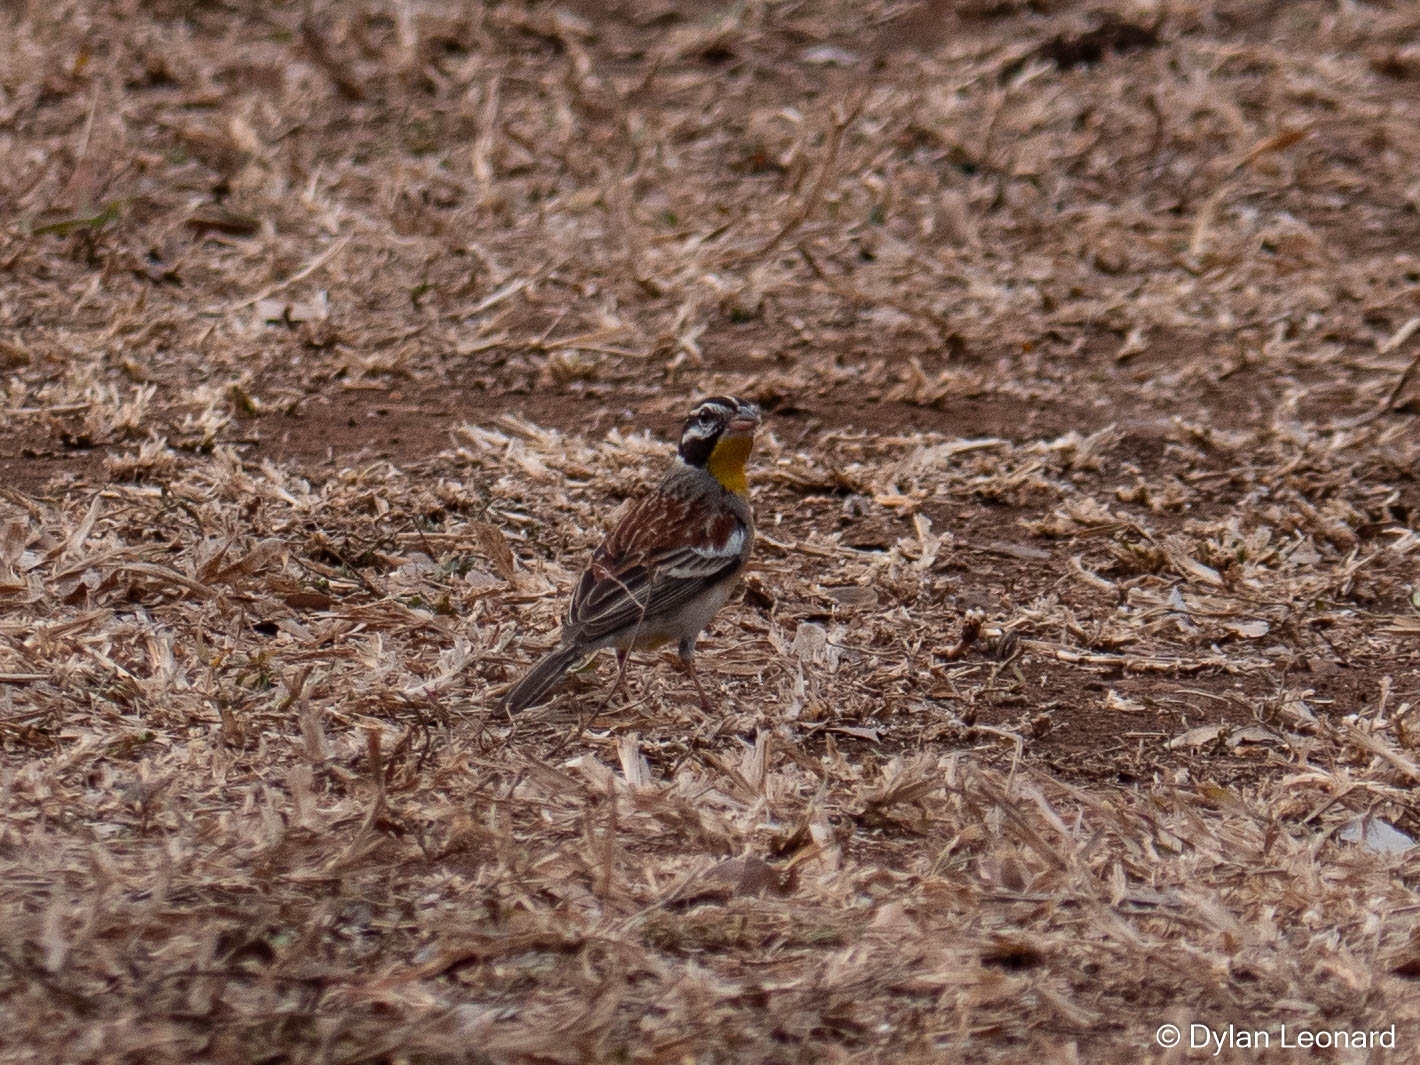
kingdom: Animalia
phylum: Chordata
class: Aves
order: Passeriformes
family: Emberizidae
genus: Emberiza
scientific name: Emberiza flaviventris
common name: Golden-breasted bunting
